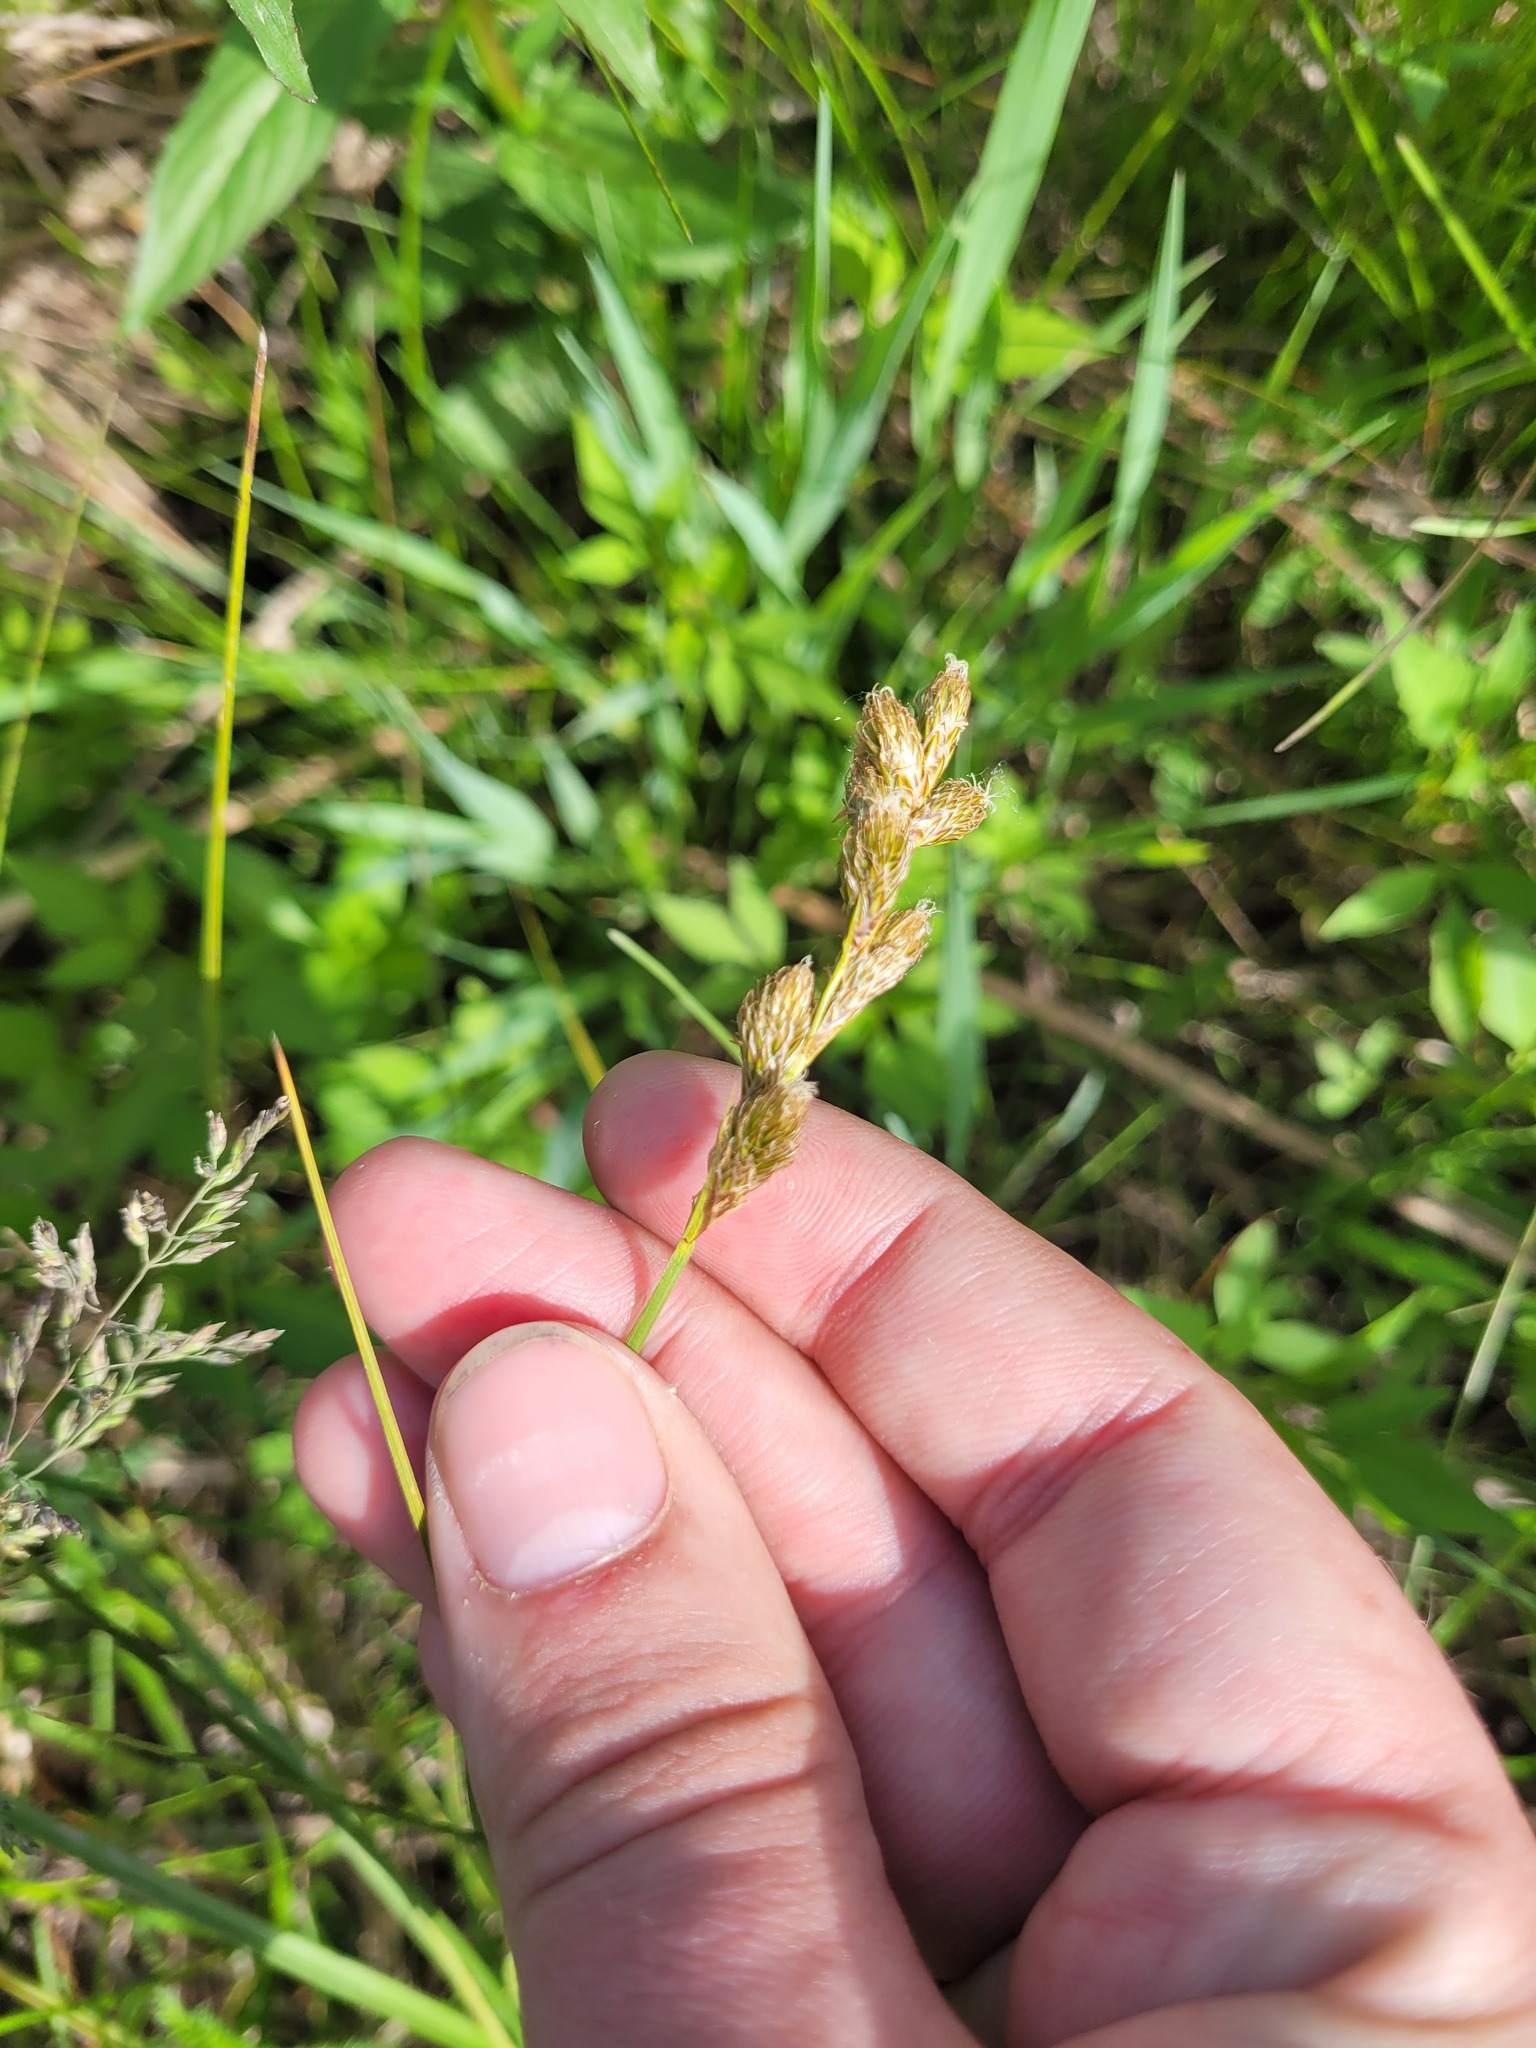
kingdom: Plantae
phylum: Tracheophyta
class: Liliopsida
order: Poales
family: Cyperaceae
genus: Carex
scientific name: Carex leporina
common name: Oval sedge
